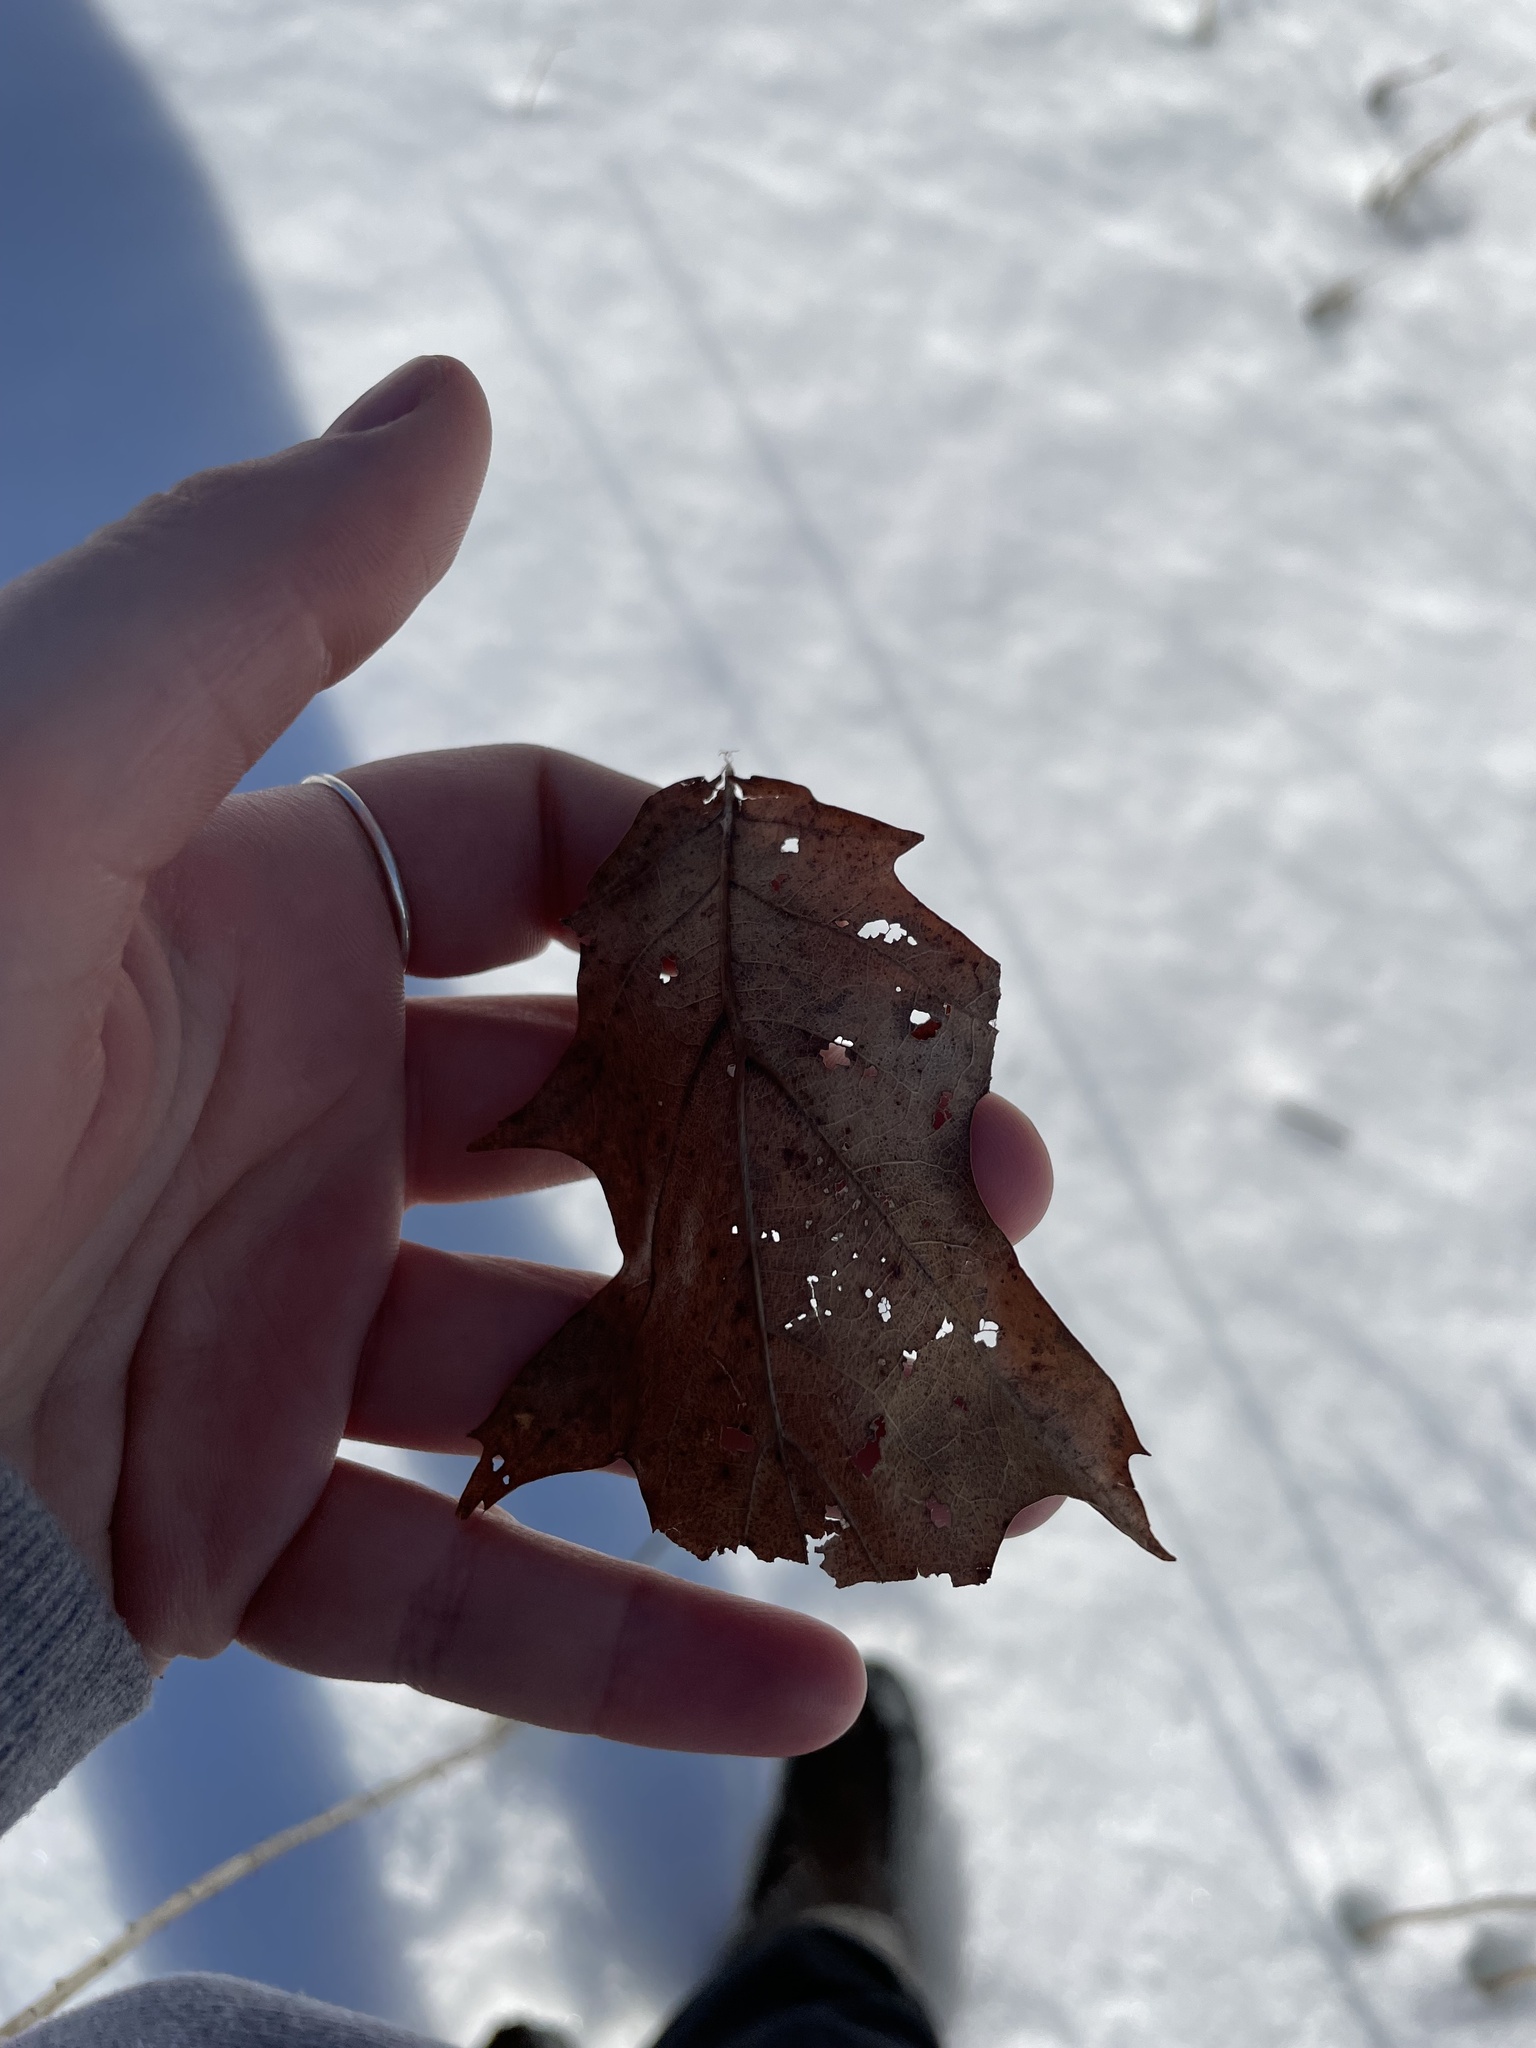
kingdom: Plantae
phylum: Tracheophyta
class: Magnoliopsida
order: Fagales
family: Fagaceae
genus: Quercus
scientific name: Quercus rubra
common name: Red oak
